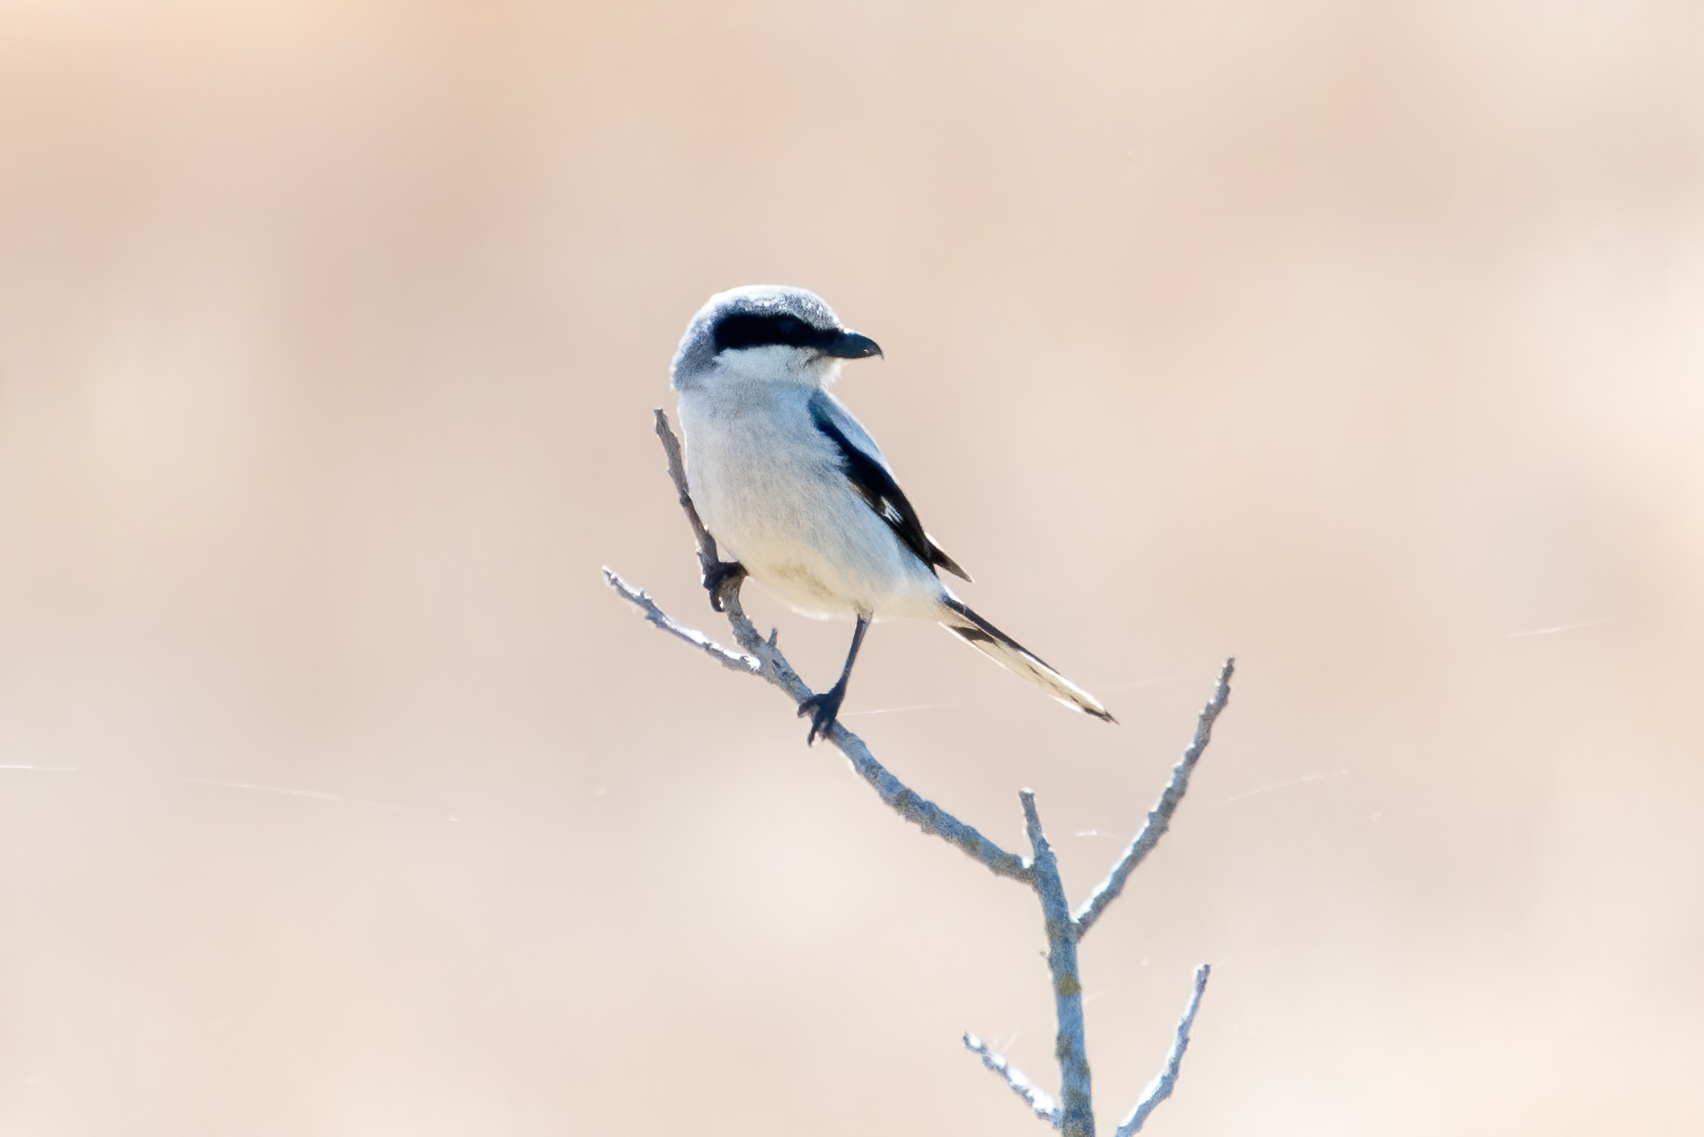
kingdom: Animalia
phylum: Chordata
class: Aves
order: Passeriformes
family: Laniidae
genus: Lanius
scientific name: Lanius ludovicianus
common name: Loggerhead shrike
